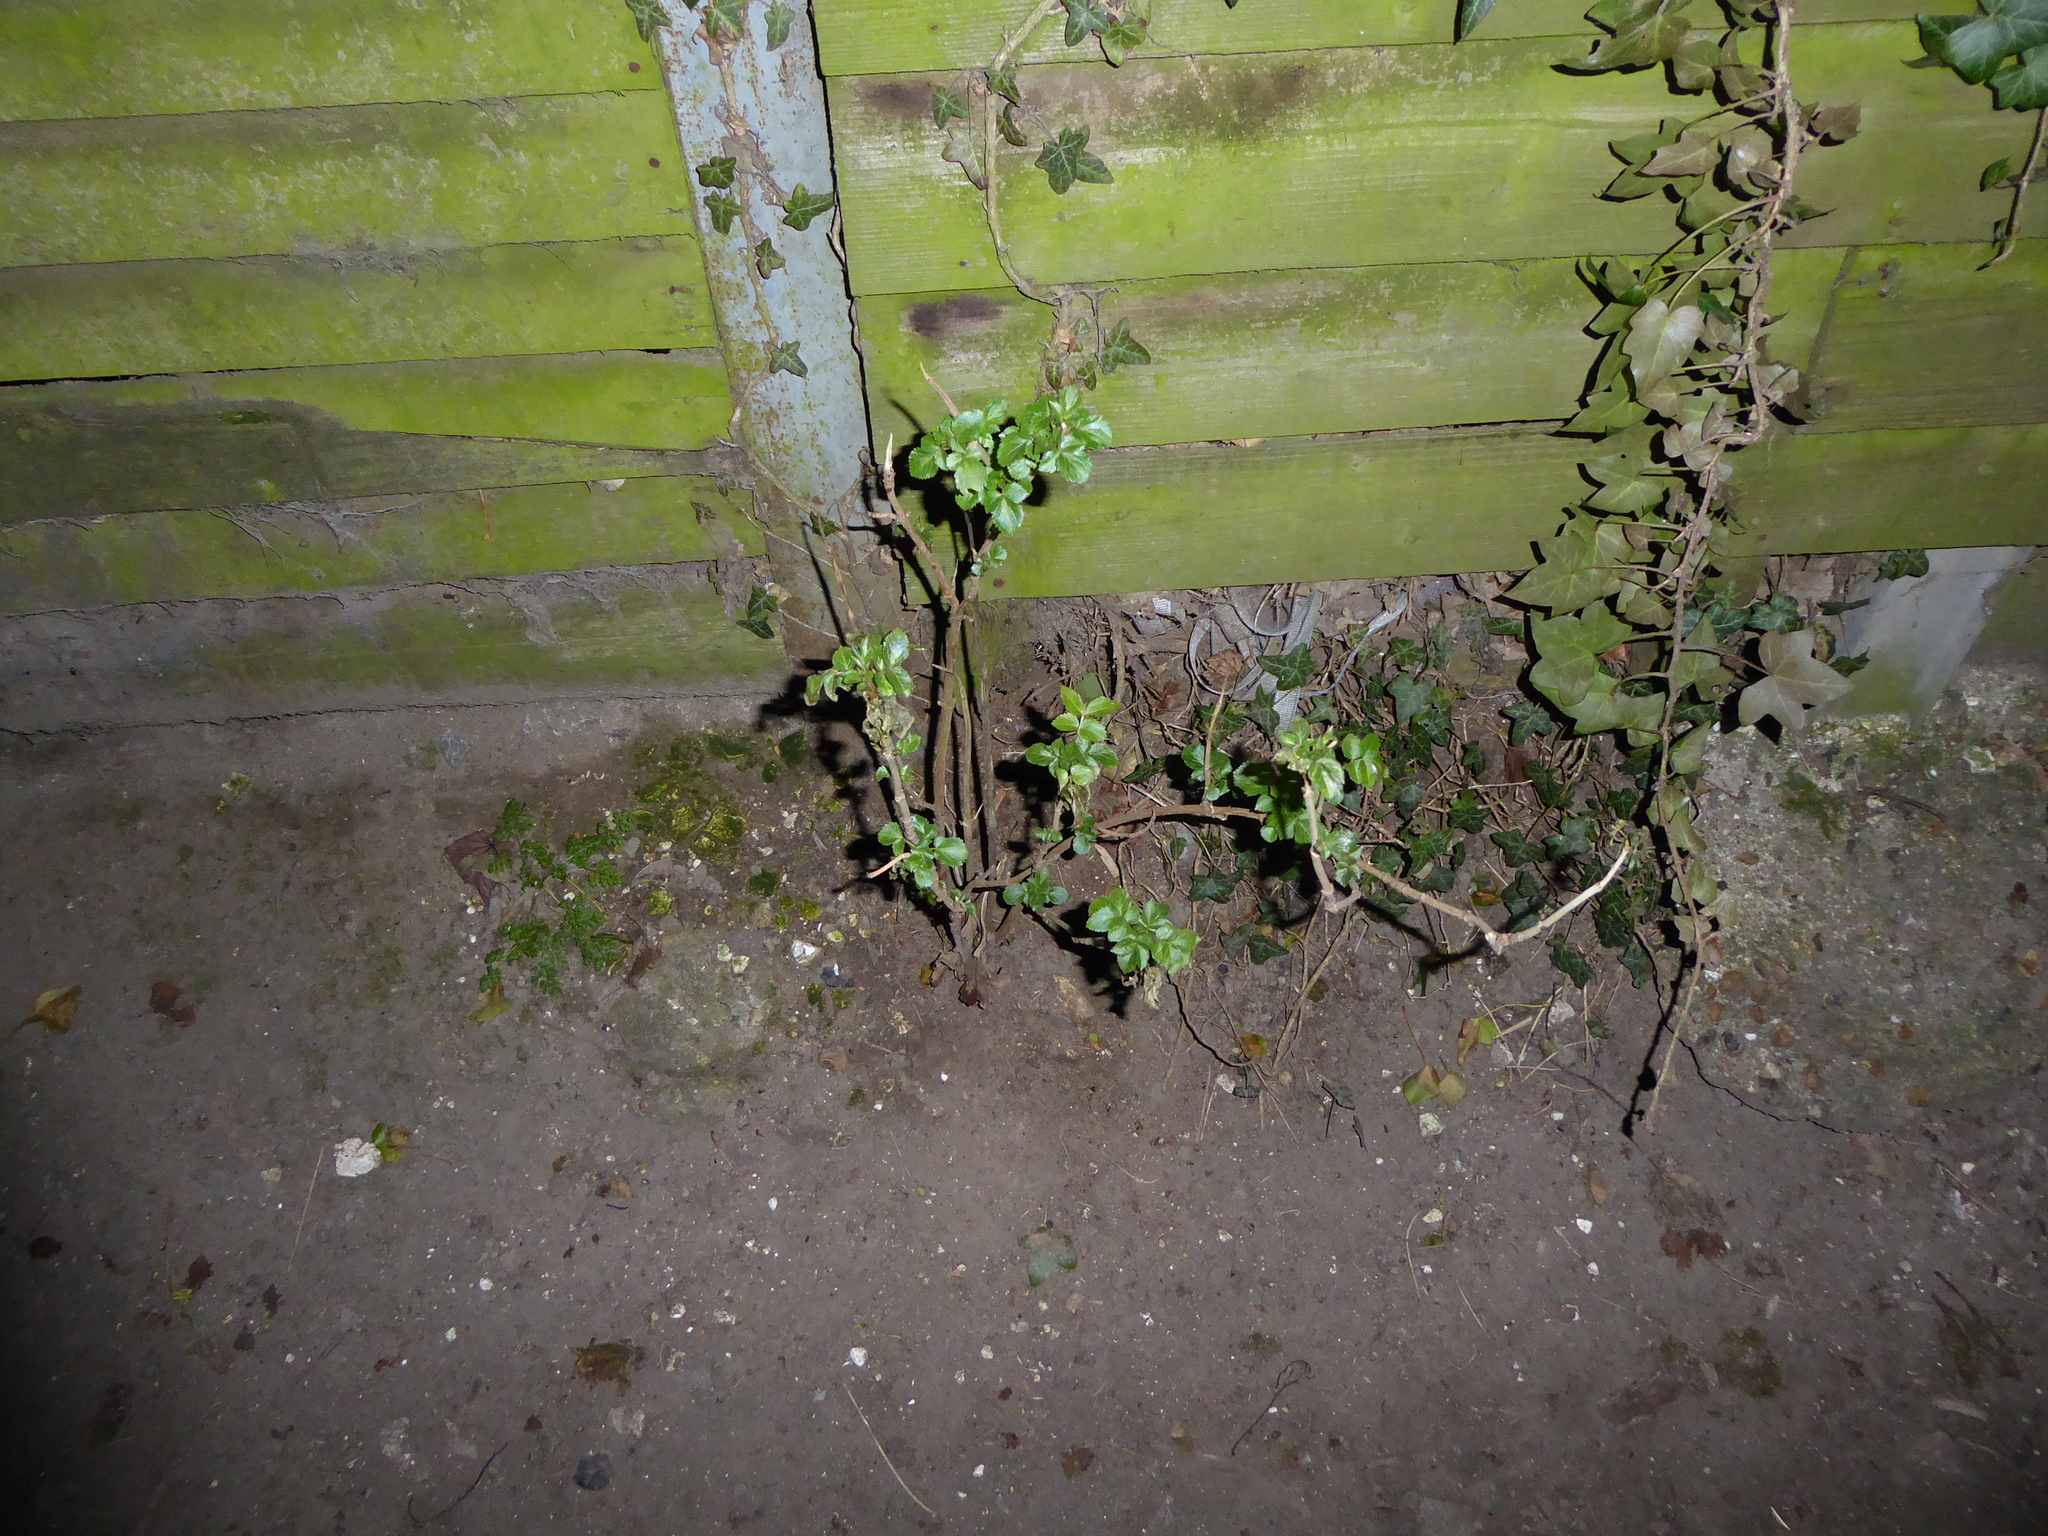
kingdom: Plantae
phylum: Tracheophyta
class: Magnoliopsida
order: Dipsacales
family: Viburnaceae
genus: Sambucus
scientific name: Sambucus nigra
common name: Elder
